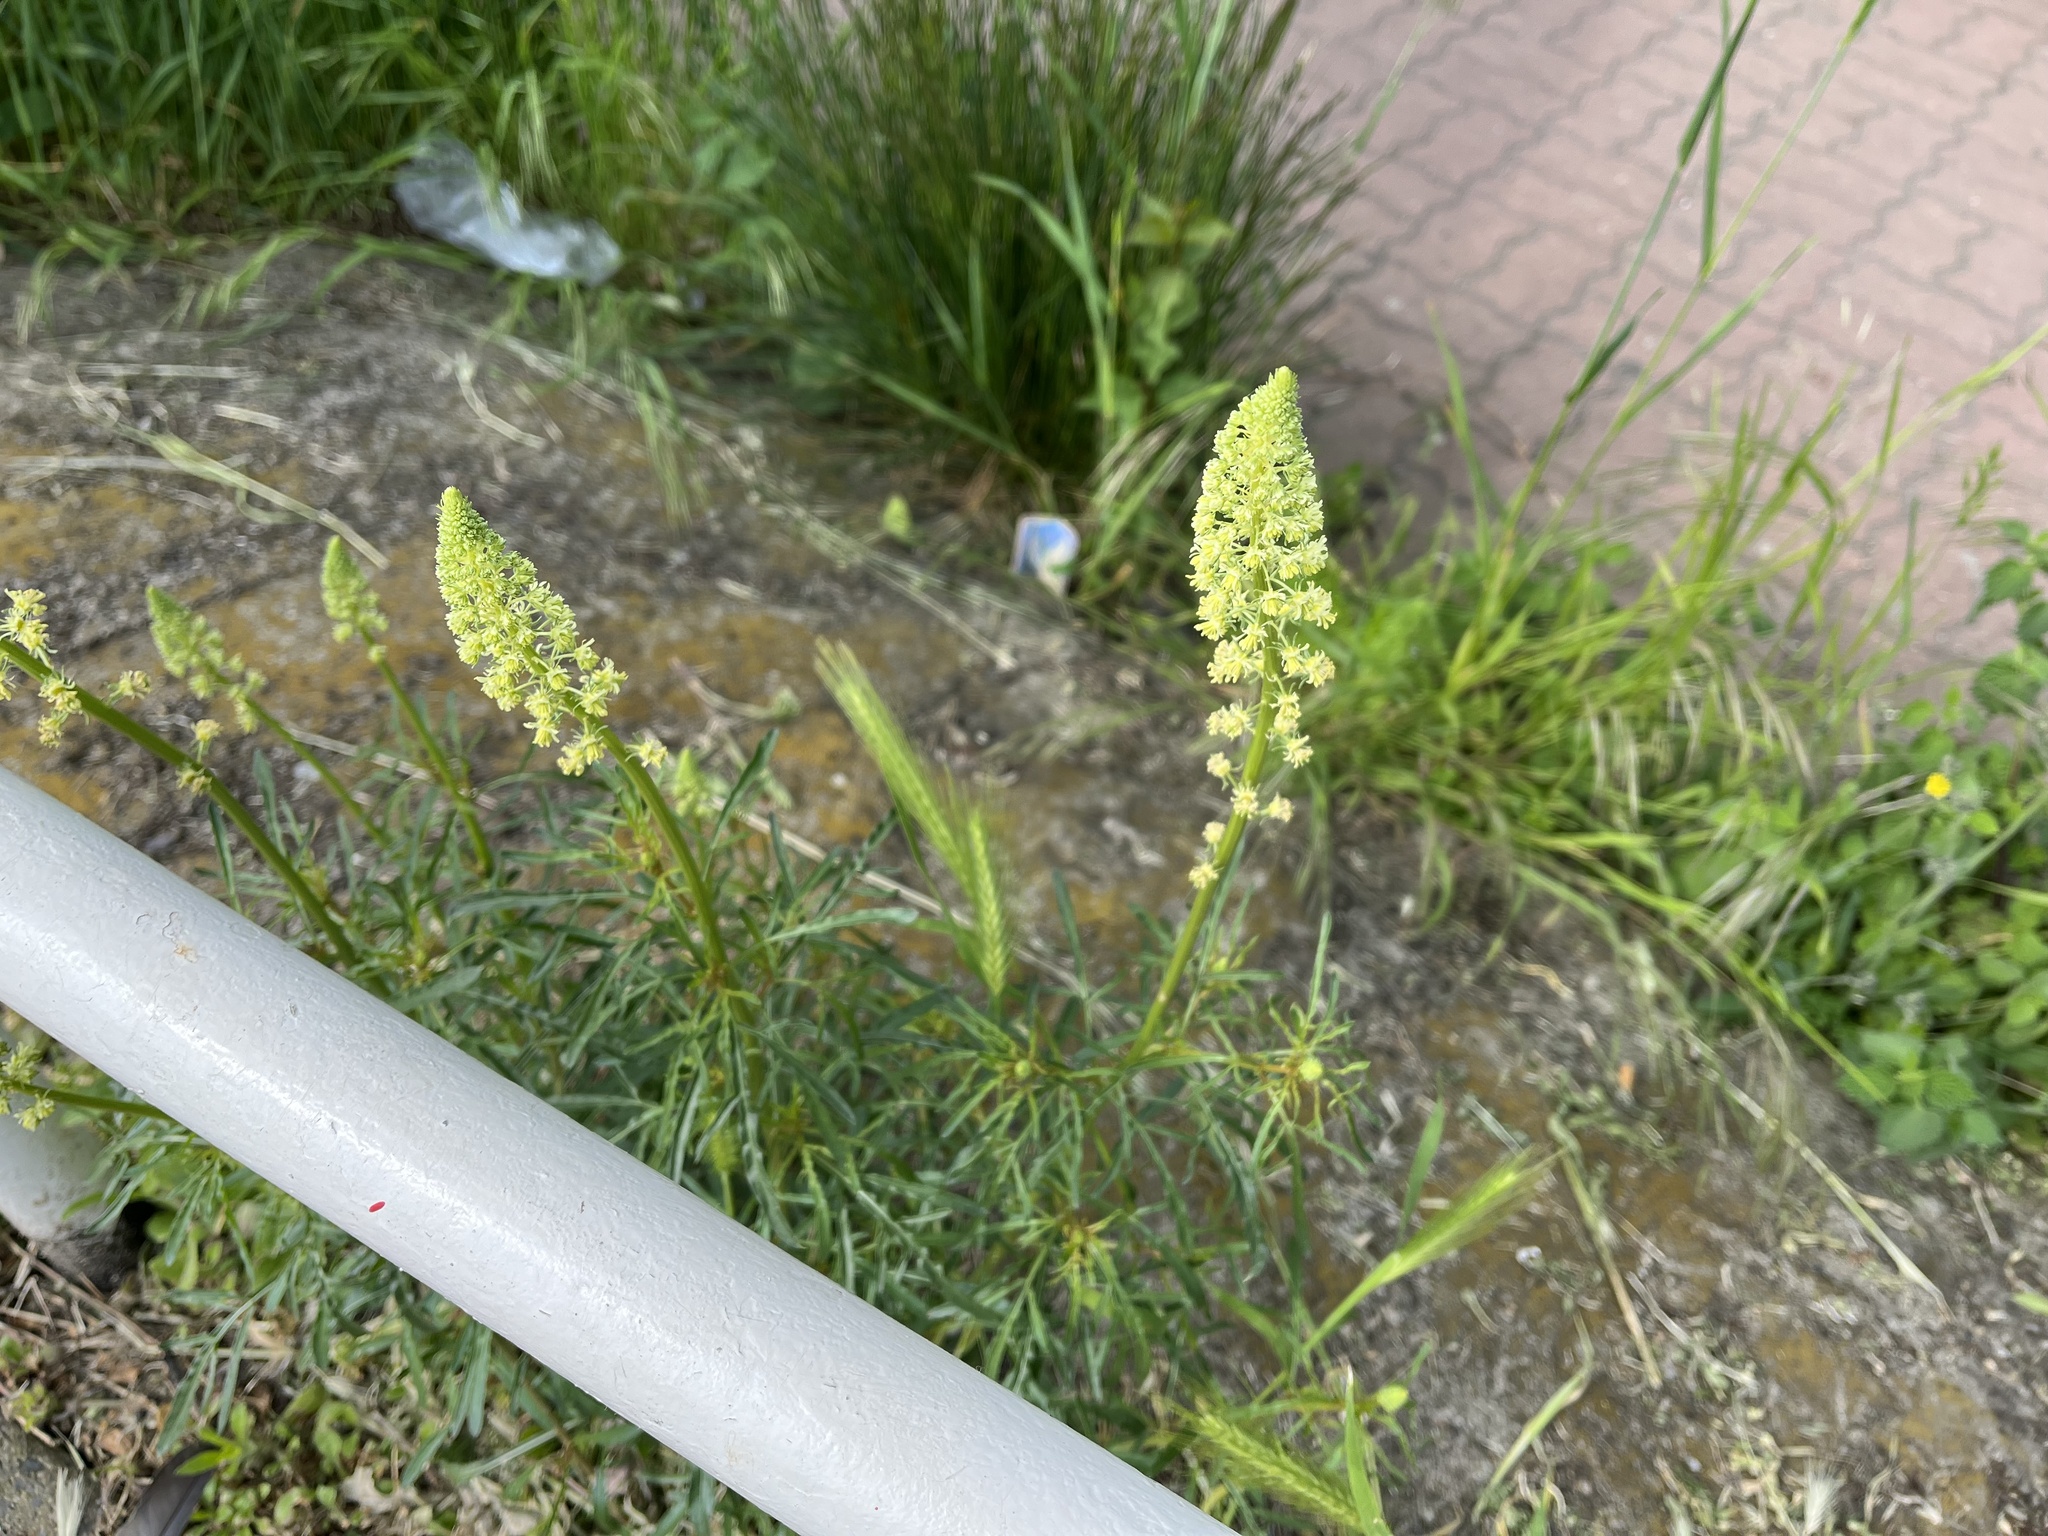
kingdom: Plantae
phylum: Tracheophyta
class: Magnoliopsida
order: Brassicales
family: Resedaceae
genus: Reseda
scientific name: Reseda lutea
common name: Wild mignonette
